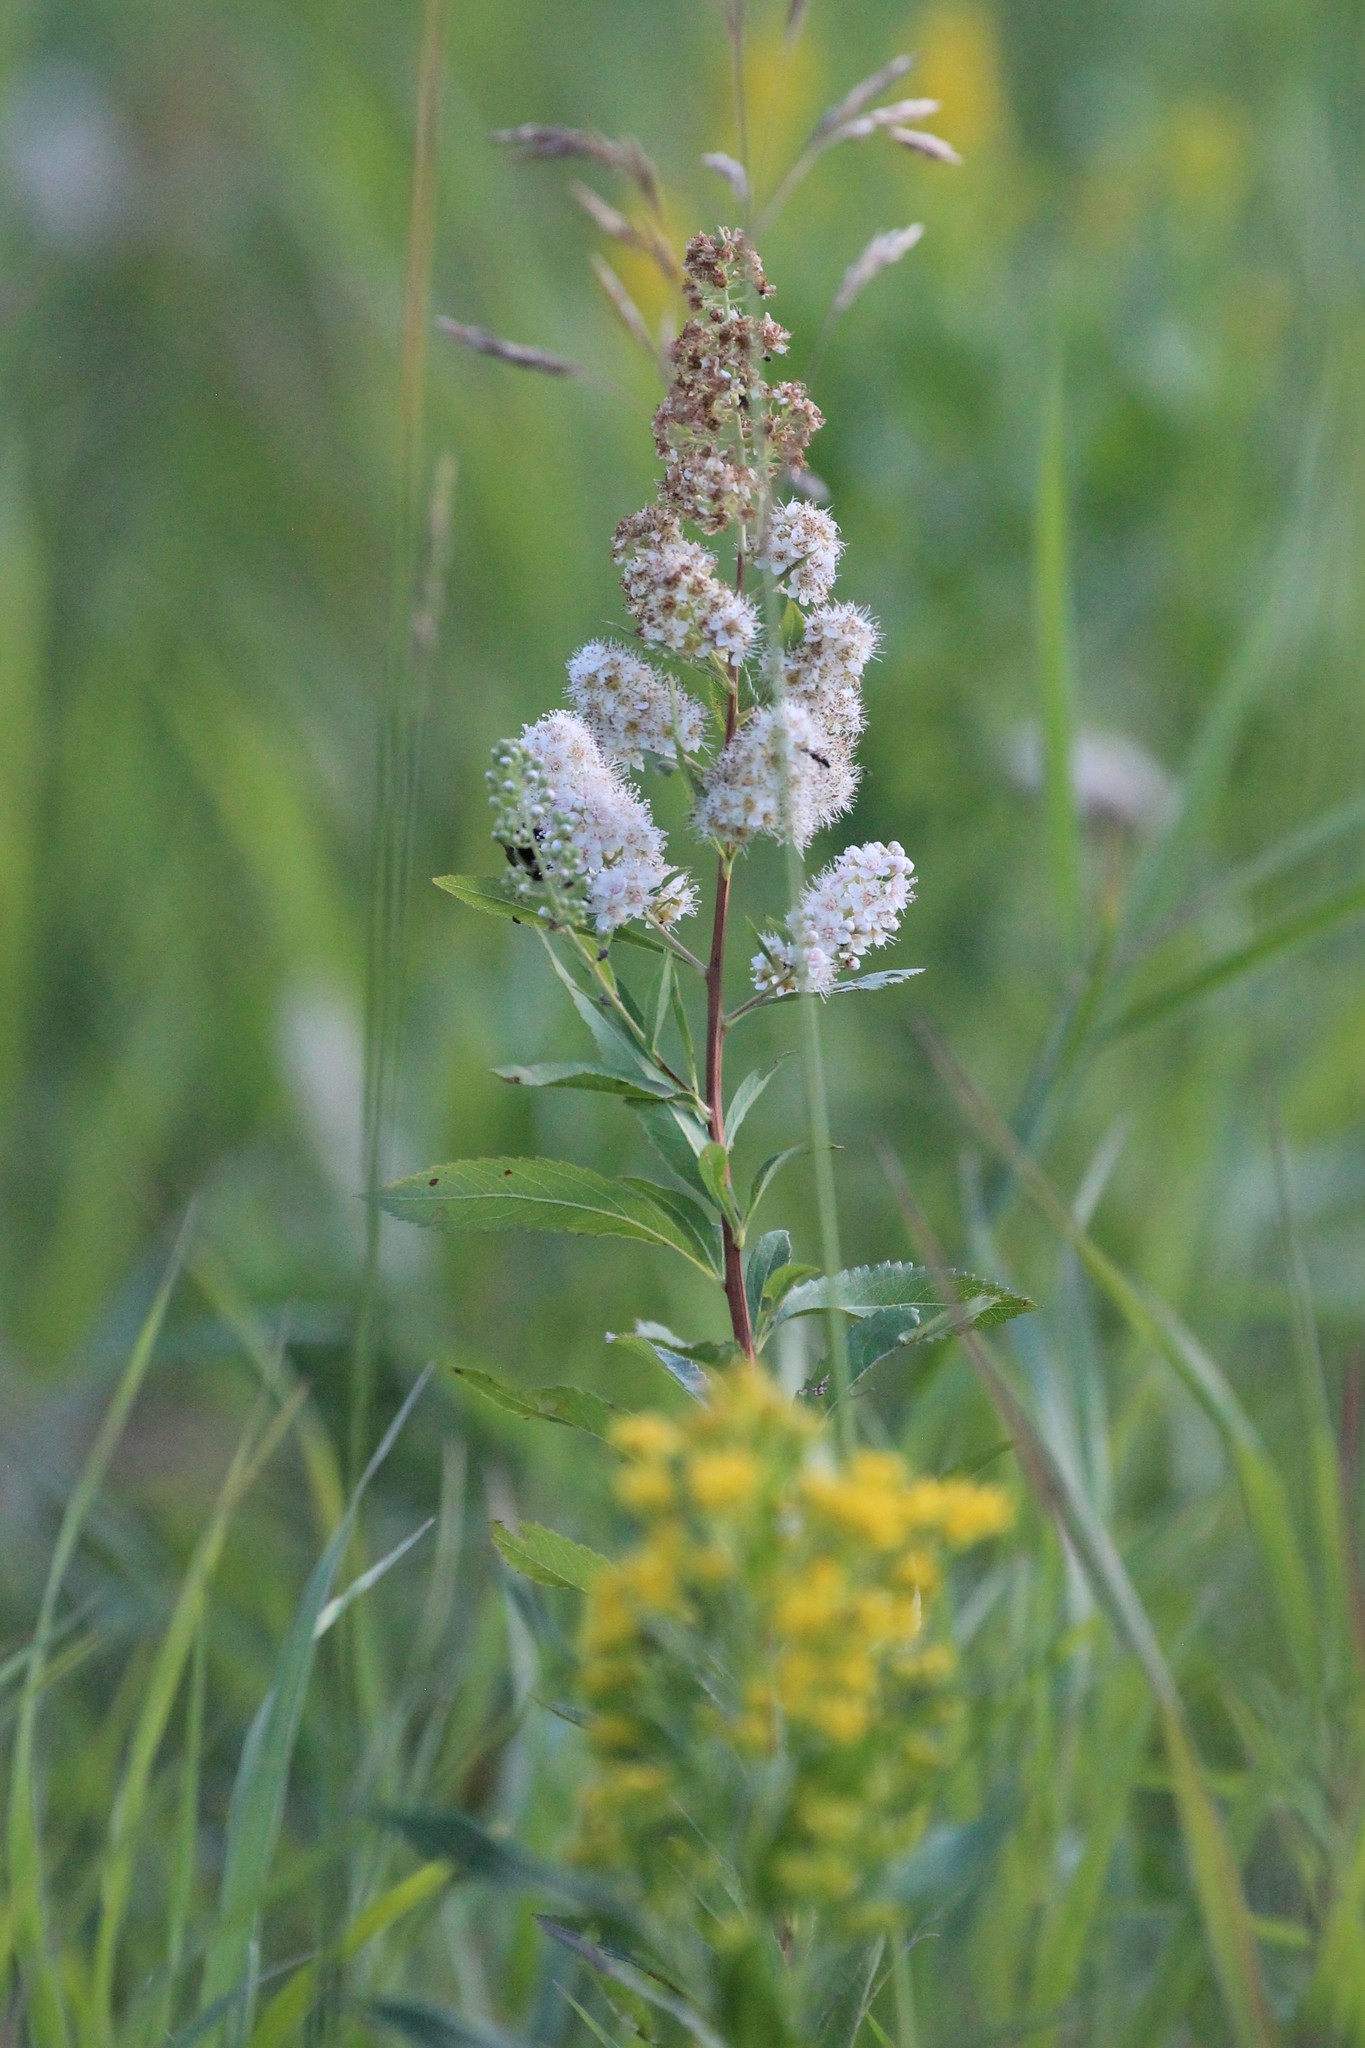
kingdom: Plantae
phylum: Tracheophyta
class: Magnoliopsida
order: Rosales
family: Rosaceae
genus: Spiraea
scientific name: Spiraea alba
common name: Pale bridewort
